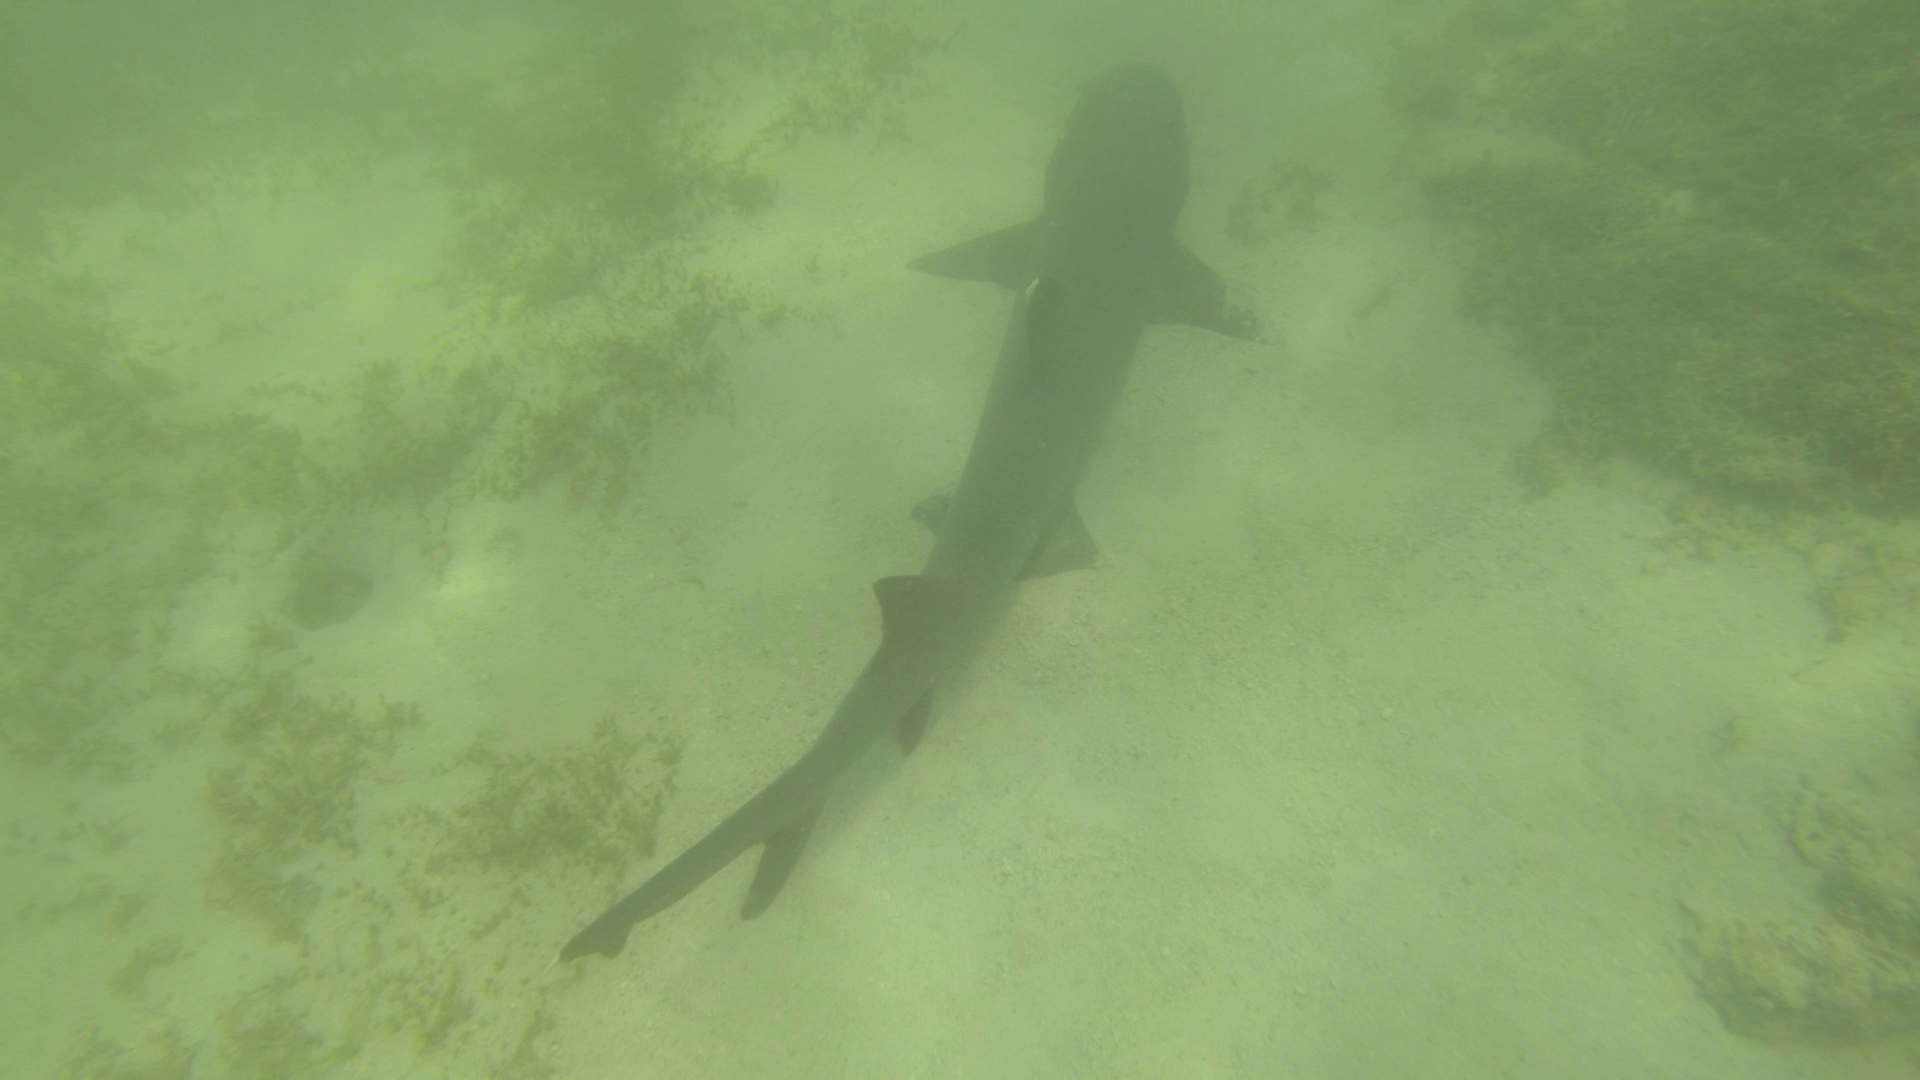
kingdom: Animalia
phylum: Chordata
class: Elasmobranchii
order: Carcharhiniformes
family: Carcharhinidae
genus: Triaenodon
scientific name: Triaenodon obesus
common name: Whitetip reef shark
